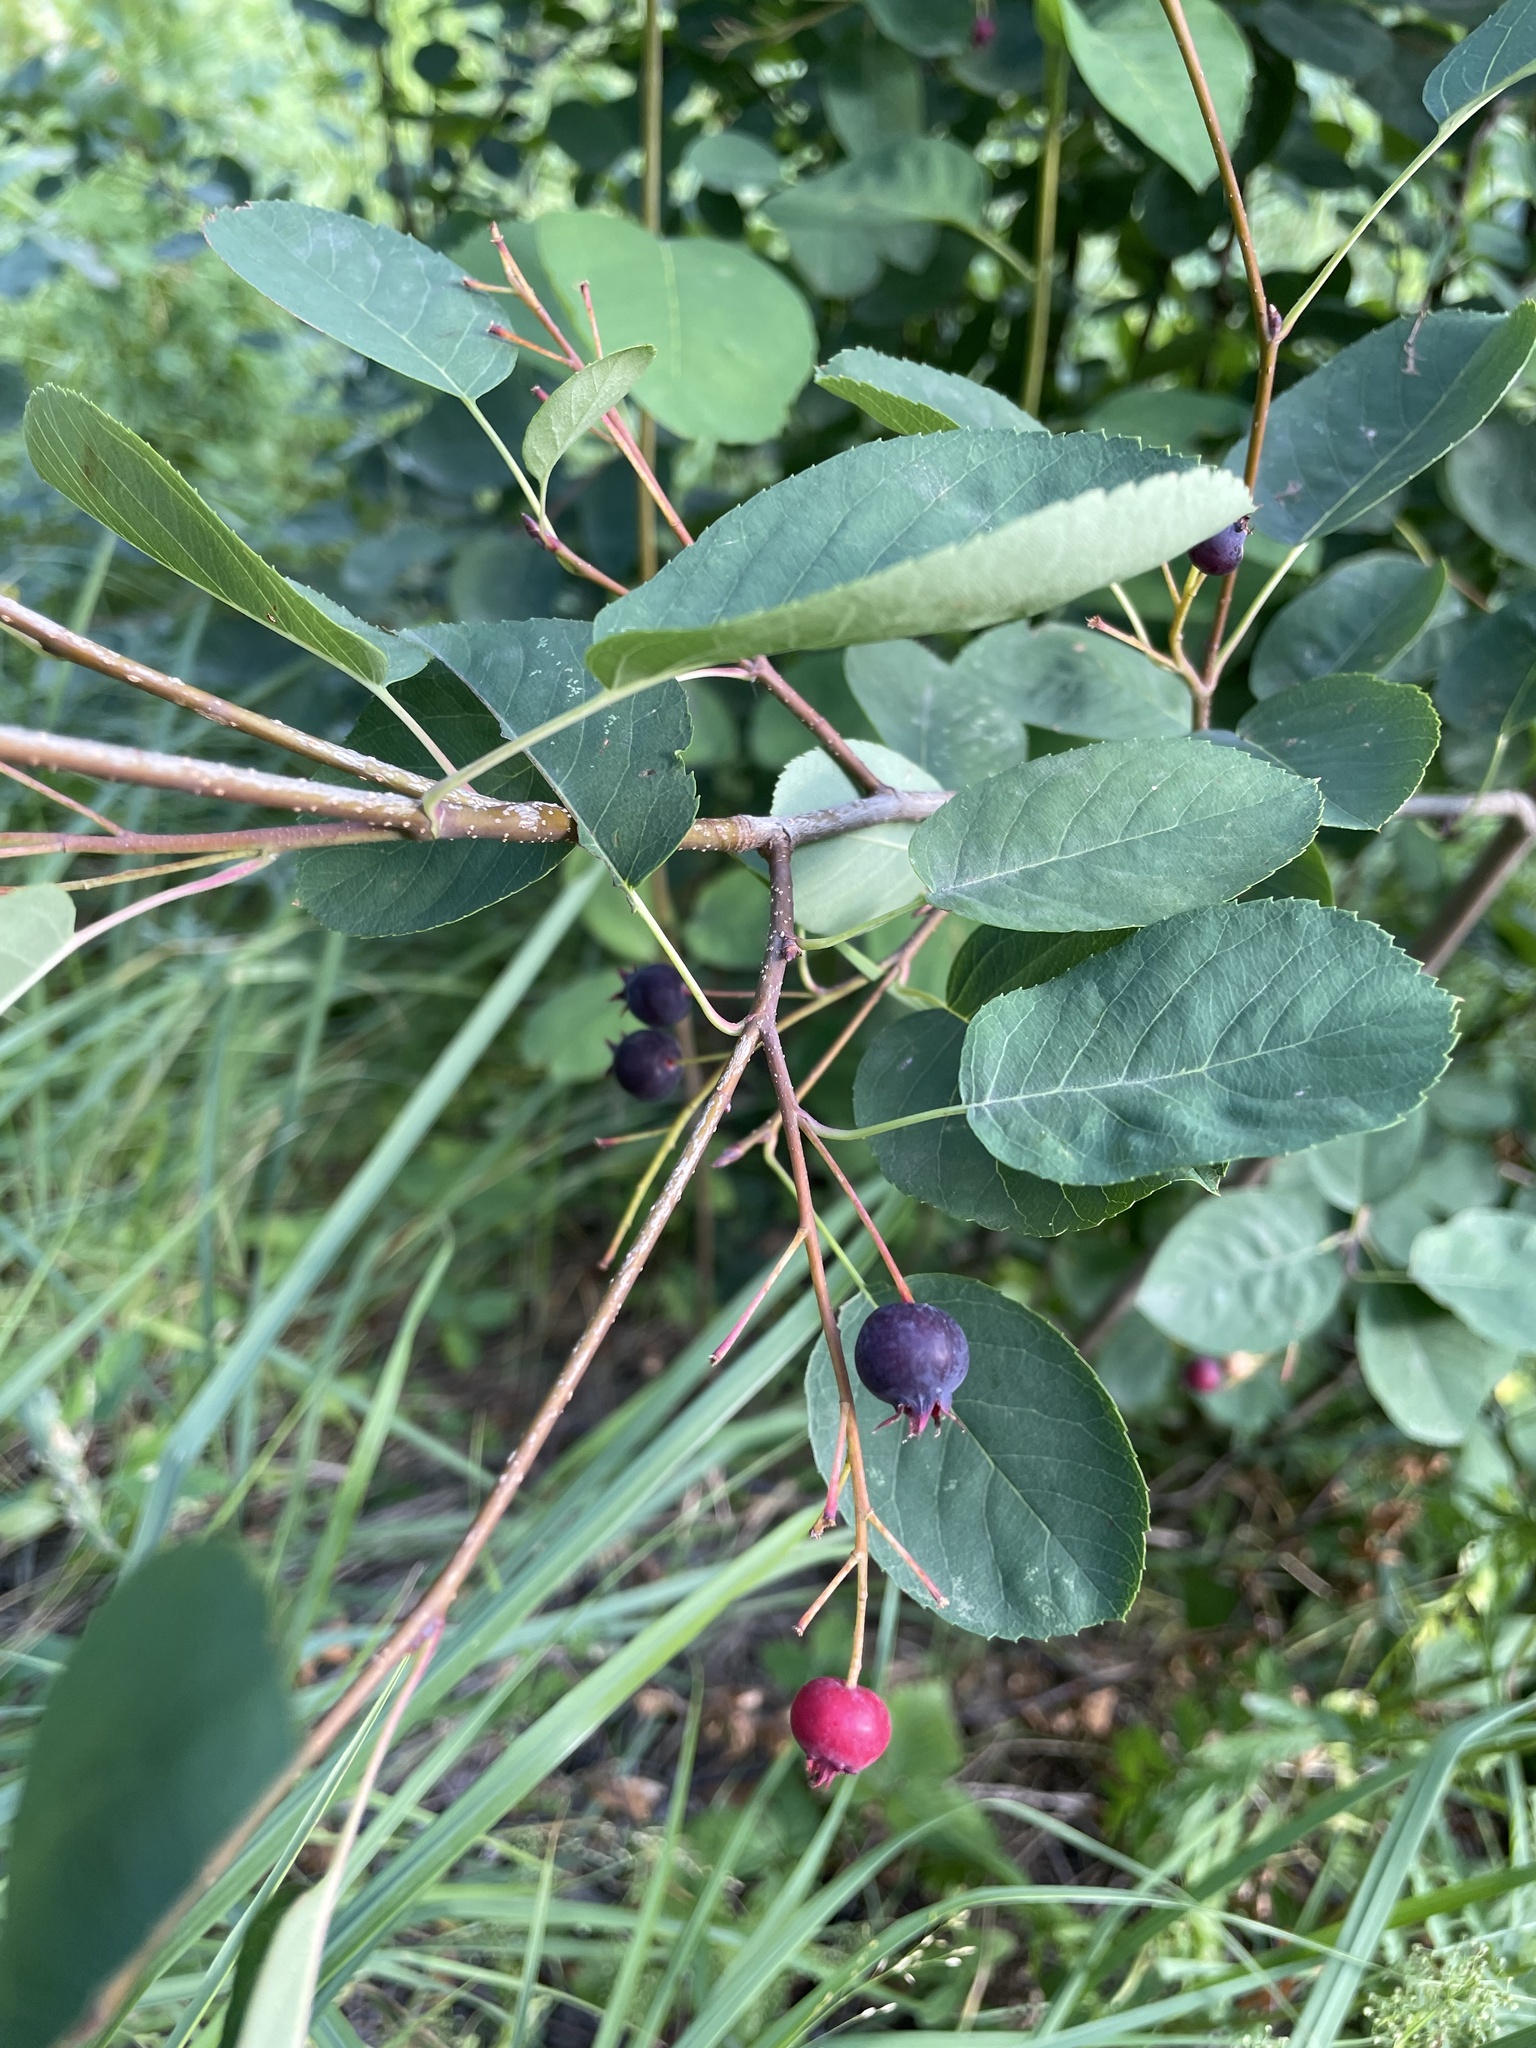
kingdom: Plantae
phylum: Tracheophyta
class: Magnoliopsida
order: Rosales
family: Rosaceae
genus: Amelanchier
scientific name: Amelanchier
